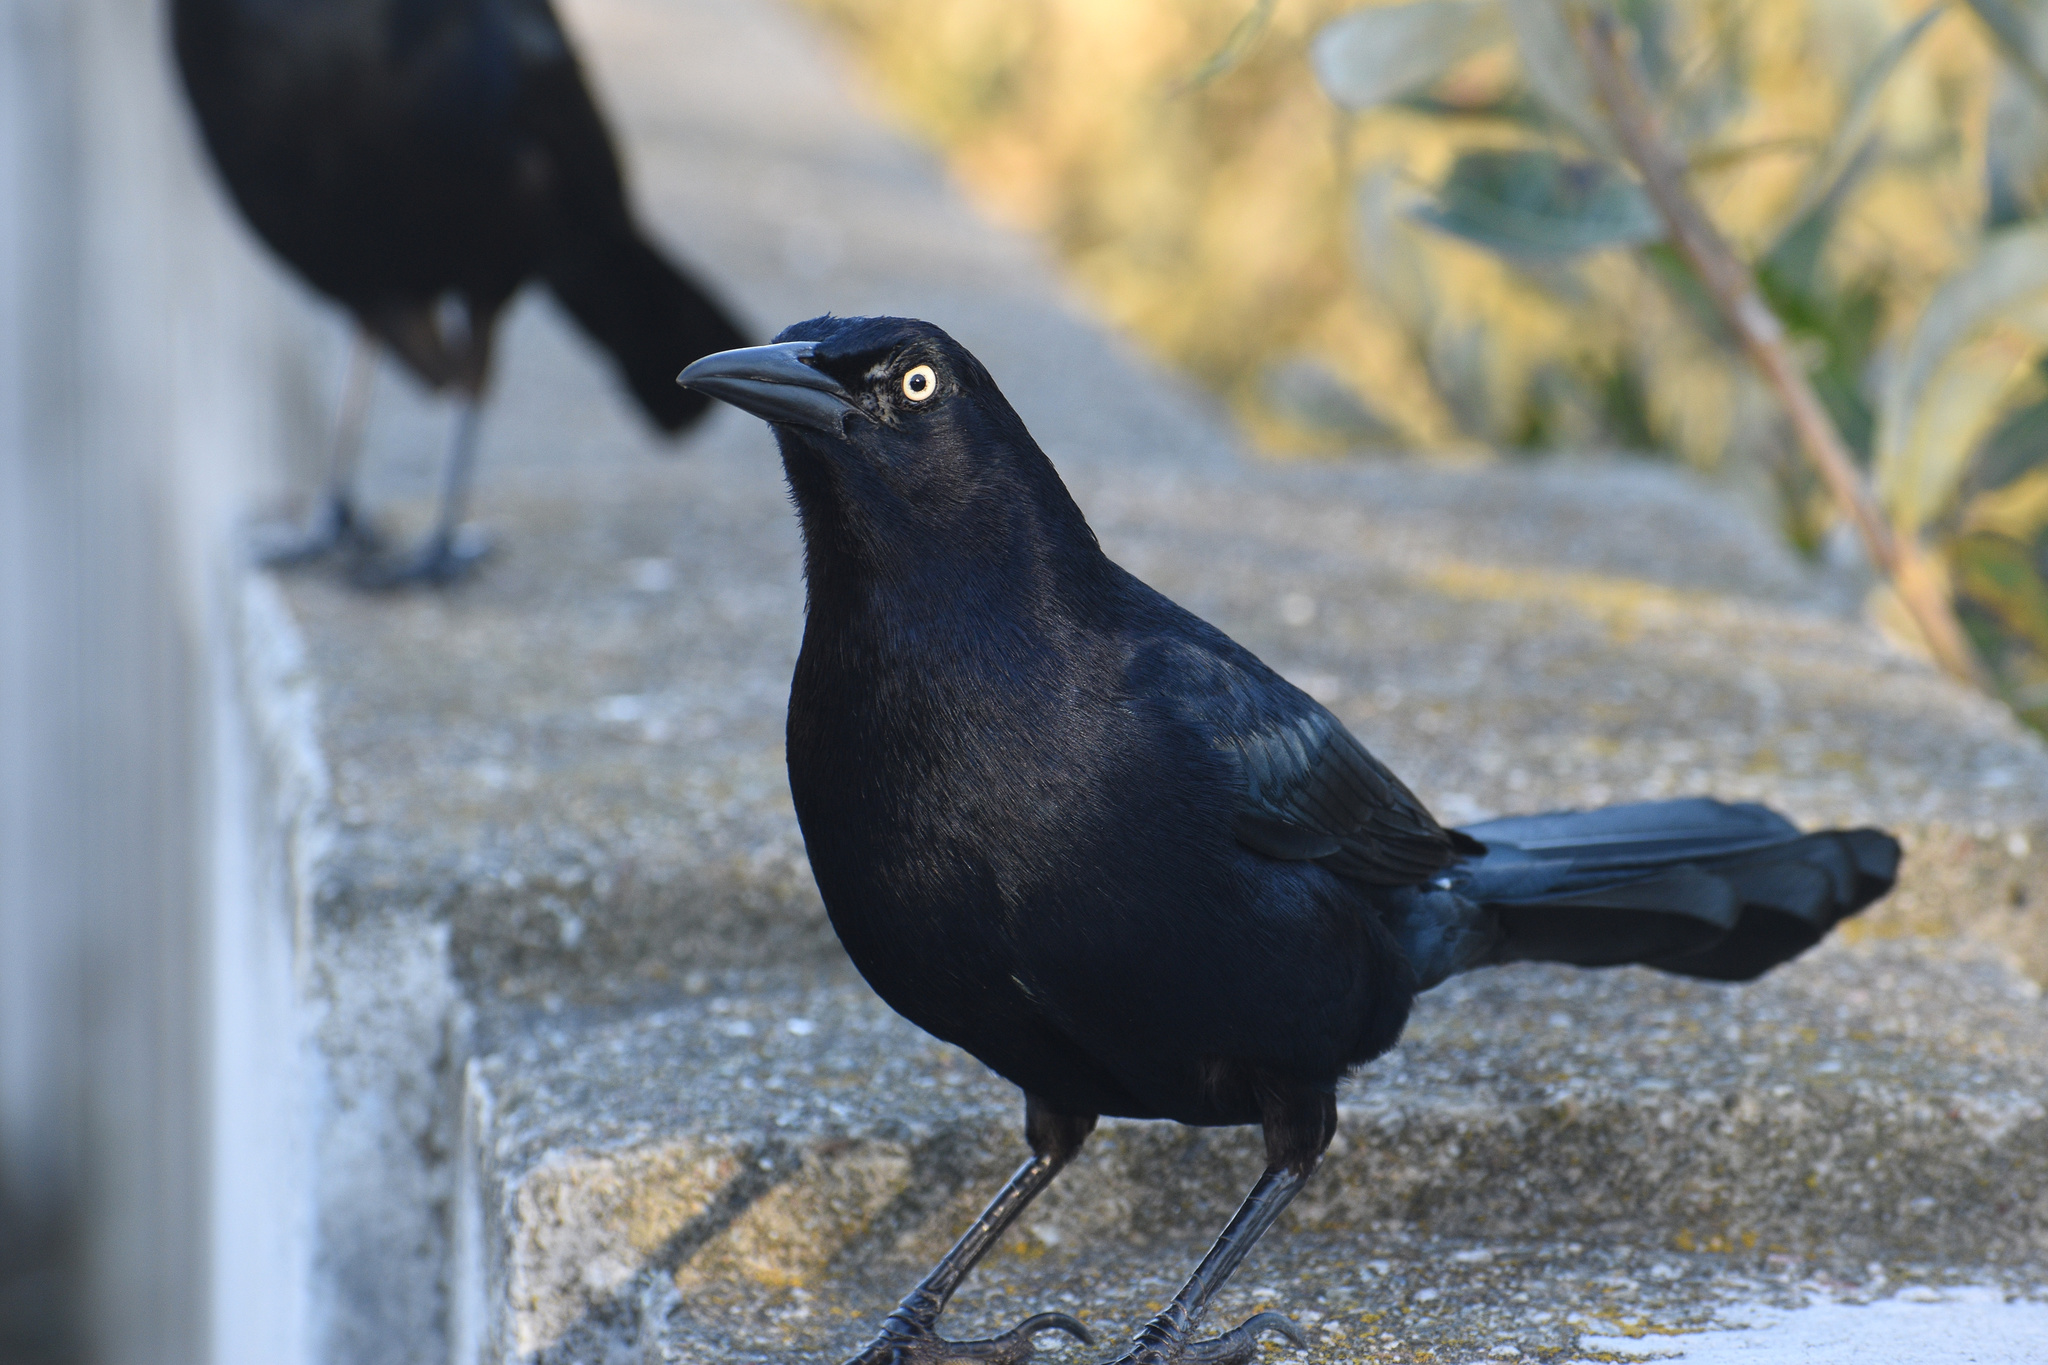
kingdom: Animalia
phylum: Chordata
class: Aves
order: Passeriformes
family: Icteridae
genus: Quiscalus
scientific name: Quiscalus mexicanus
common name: Great-tailed grackle
